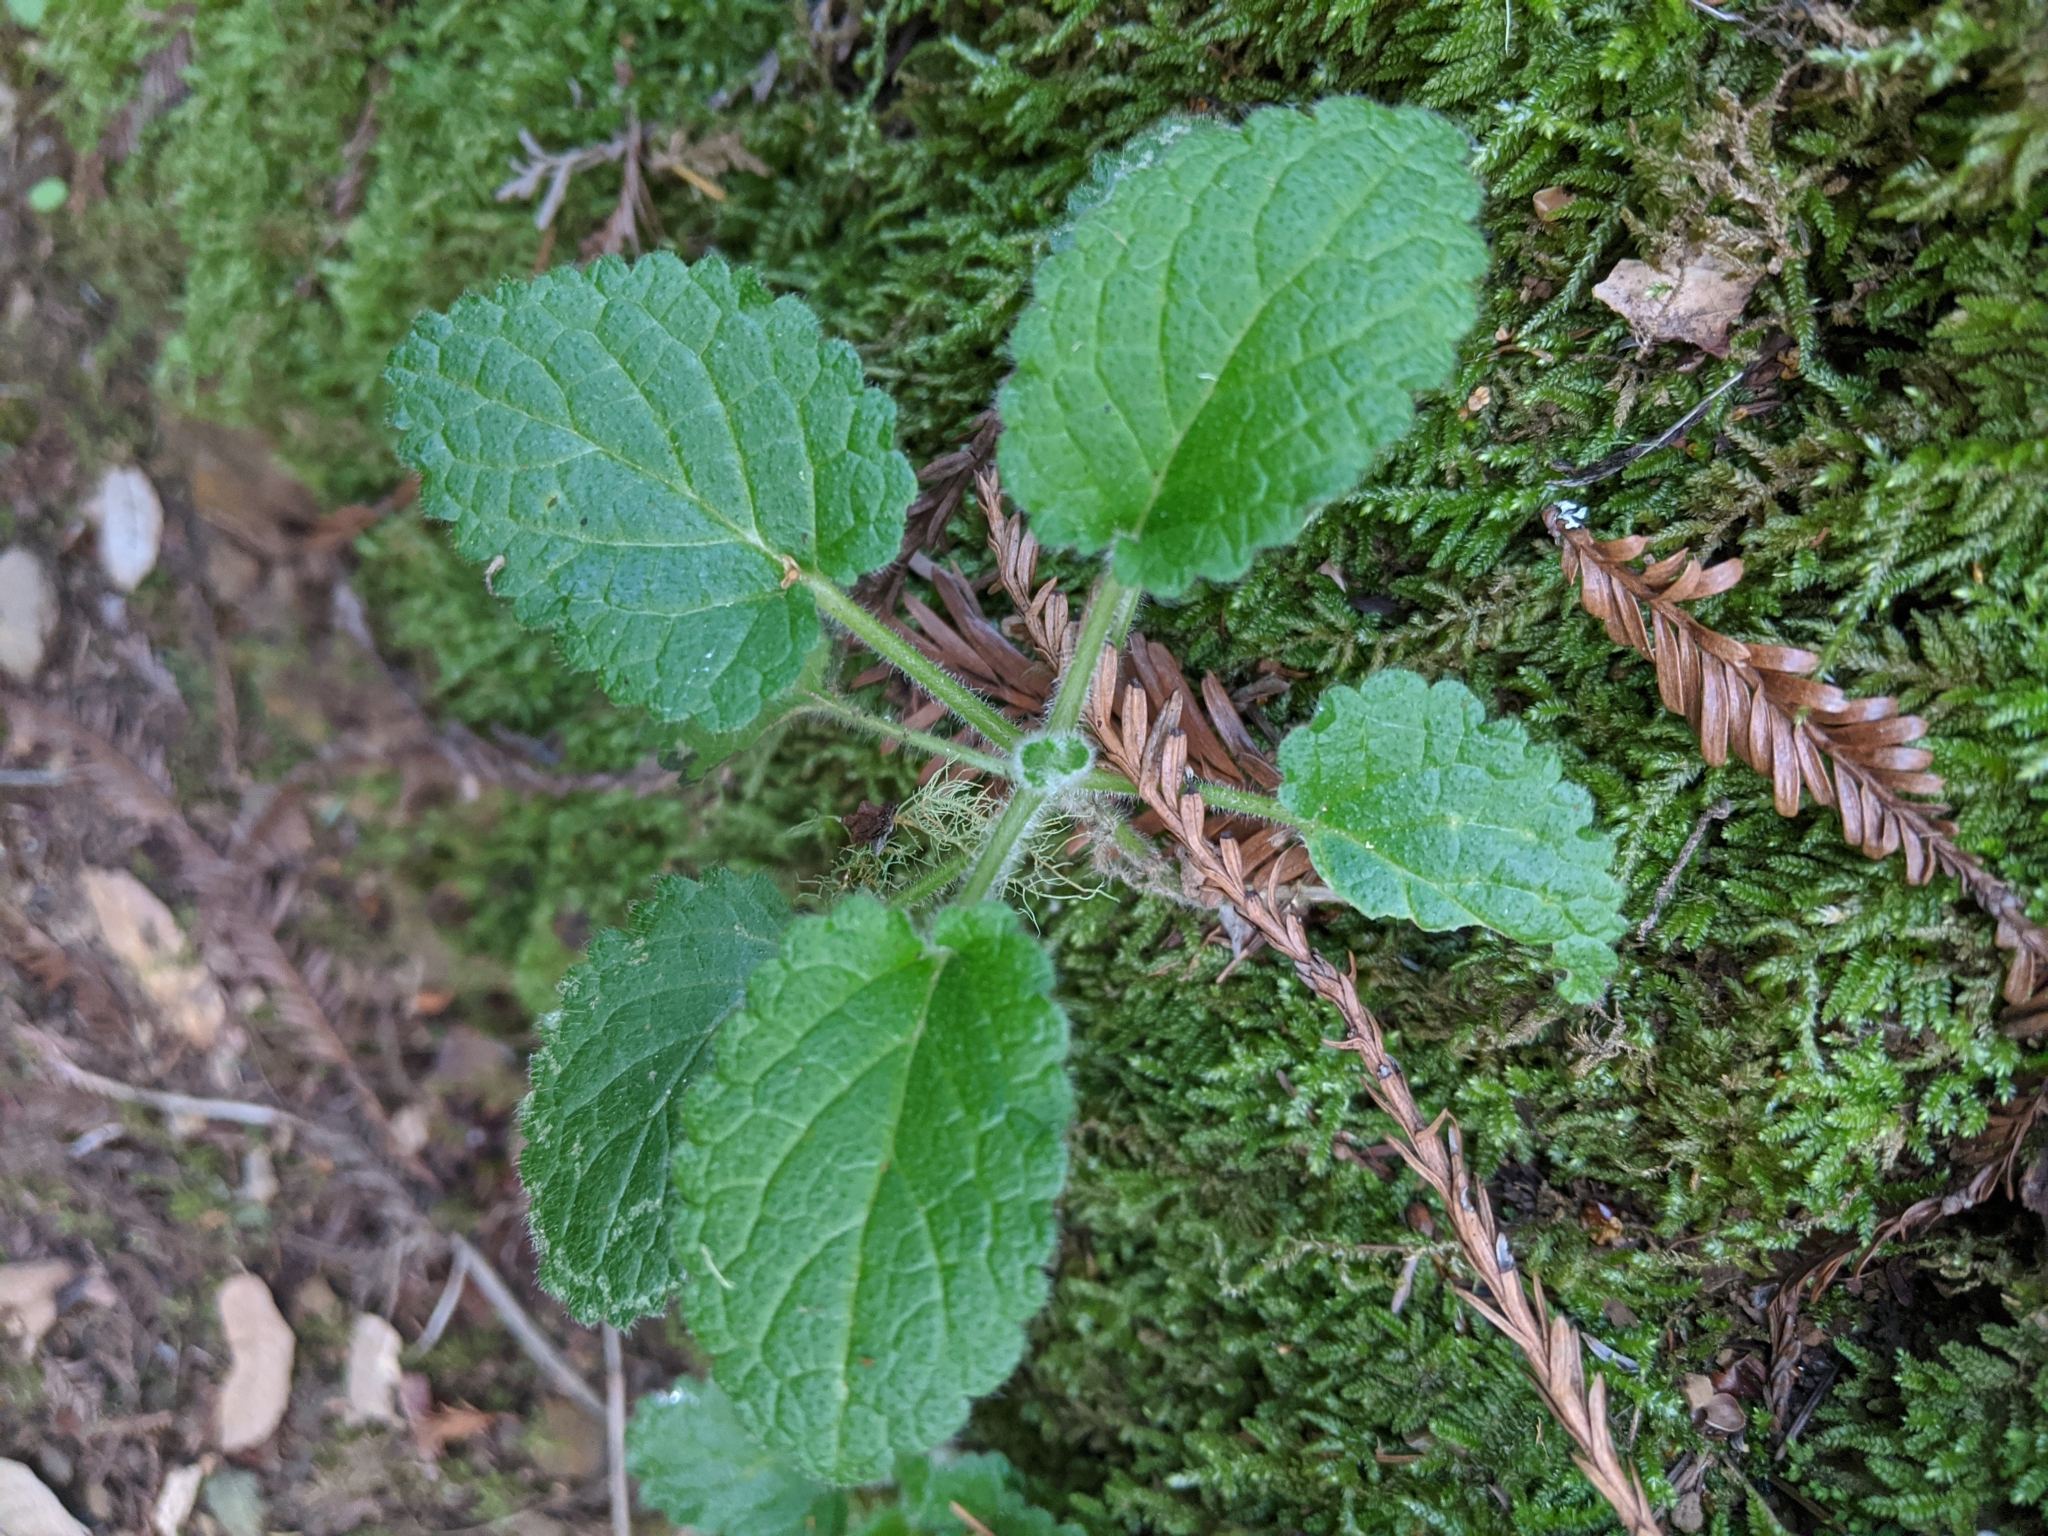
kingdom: Plantae
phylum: Tracheophyta
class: Magnoliopsida
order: Lamiales
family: Lamiaceae
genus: Stachys
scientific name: Stachys
